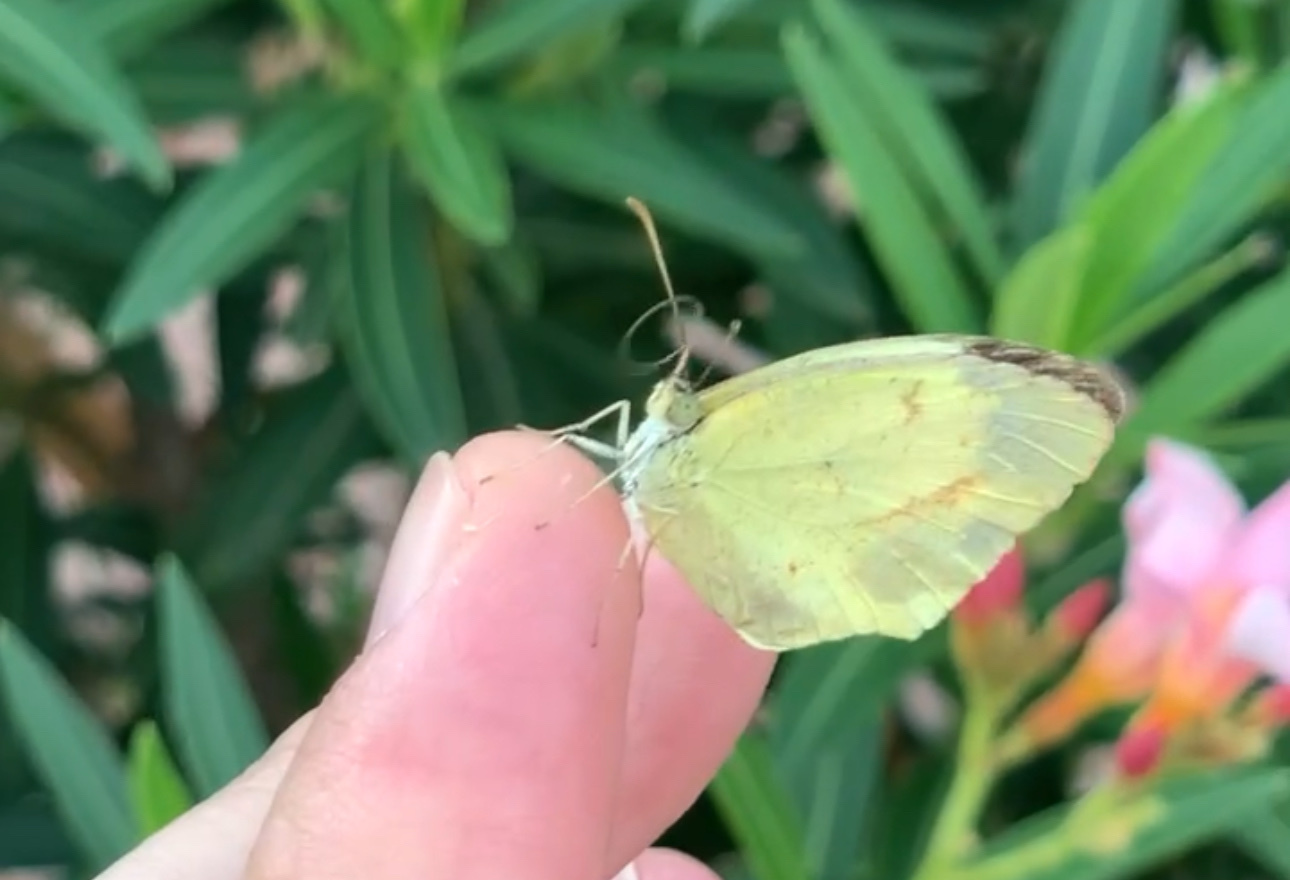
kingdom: Animalia
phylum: Arthropoda
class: Insecta
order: Lepidoptera
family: Pieridae
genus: Abaeis
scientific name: Abaeis mexicana
